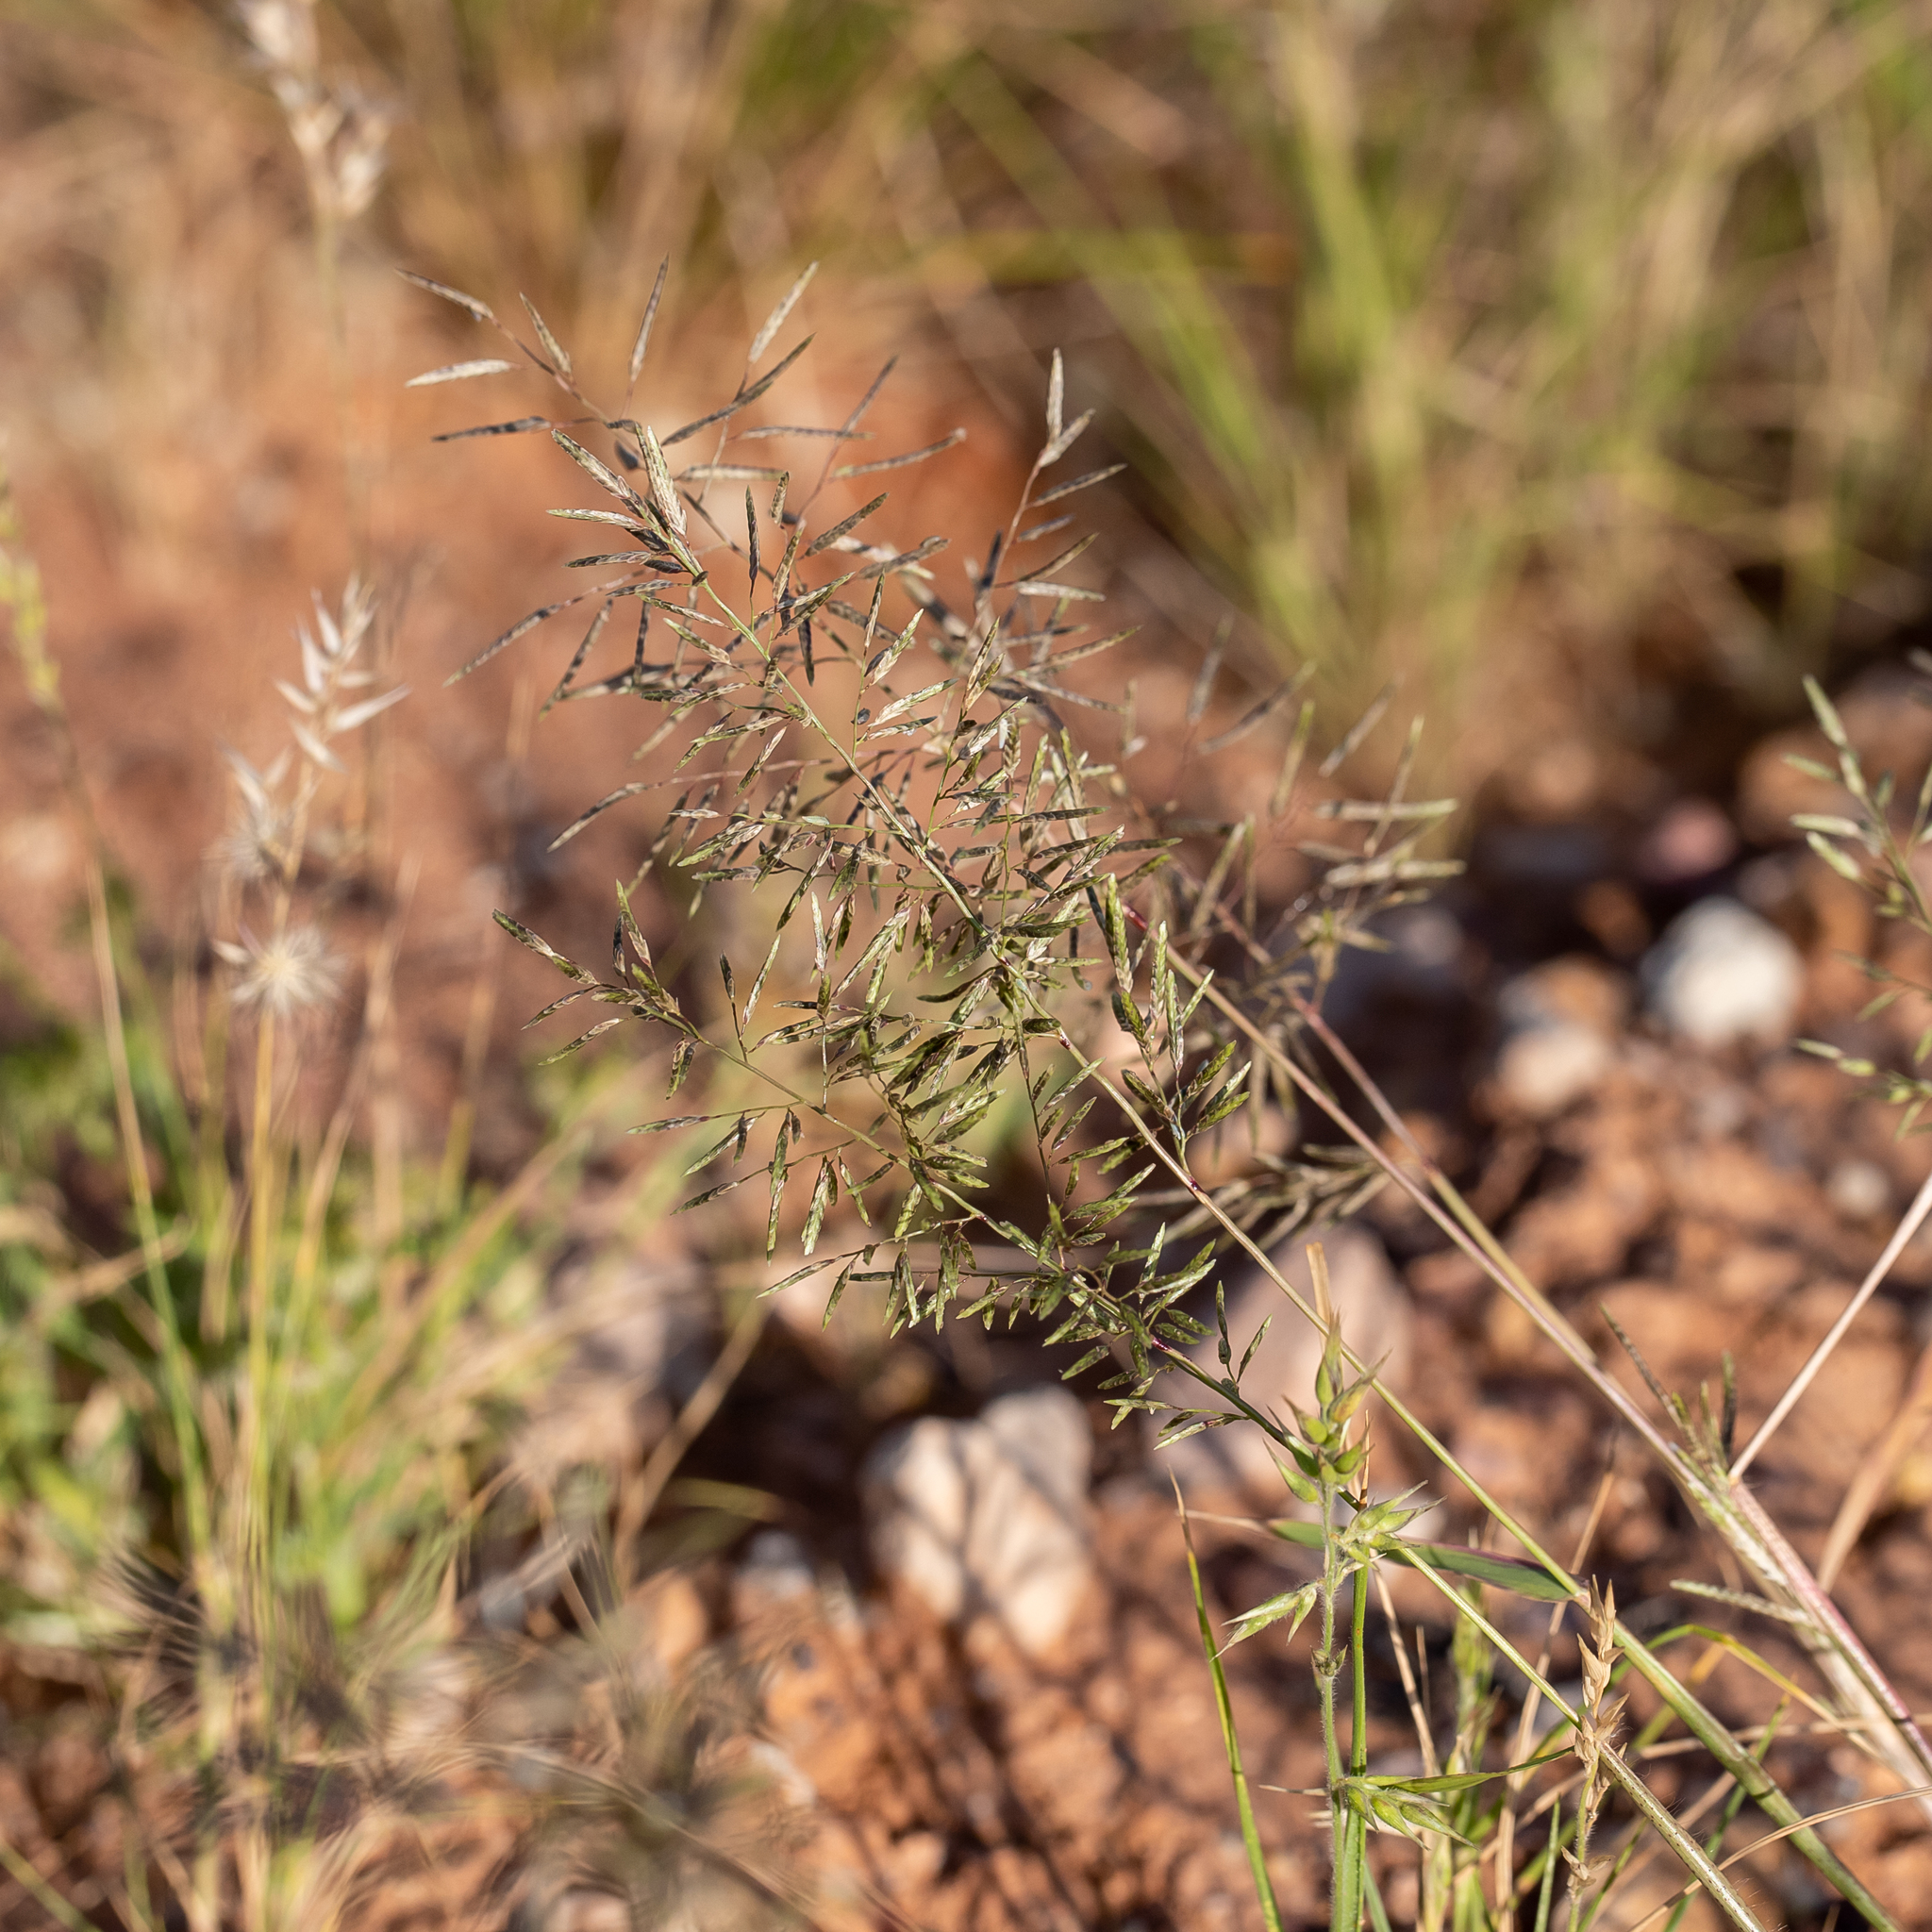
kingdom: Plantae
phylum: Tracheophyta
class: Liliopsida
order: Poales
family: Poaceae
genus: Eragrostis
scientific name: Eragrostis minor
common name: Small love-grass
